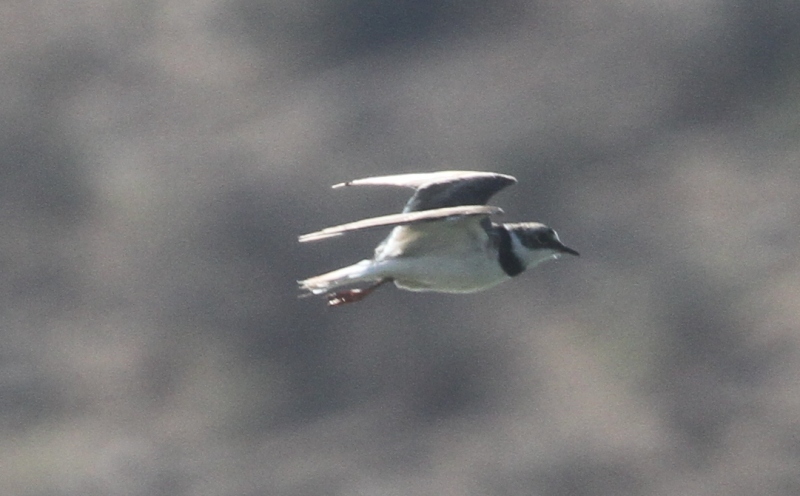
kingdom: Animalia
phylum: Chordata
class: Aves
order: Charadriiformes
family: Charadriidae
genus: Charadrius
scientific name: Charadrius dubius
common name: Little ringed plover
